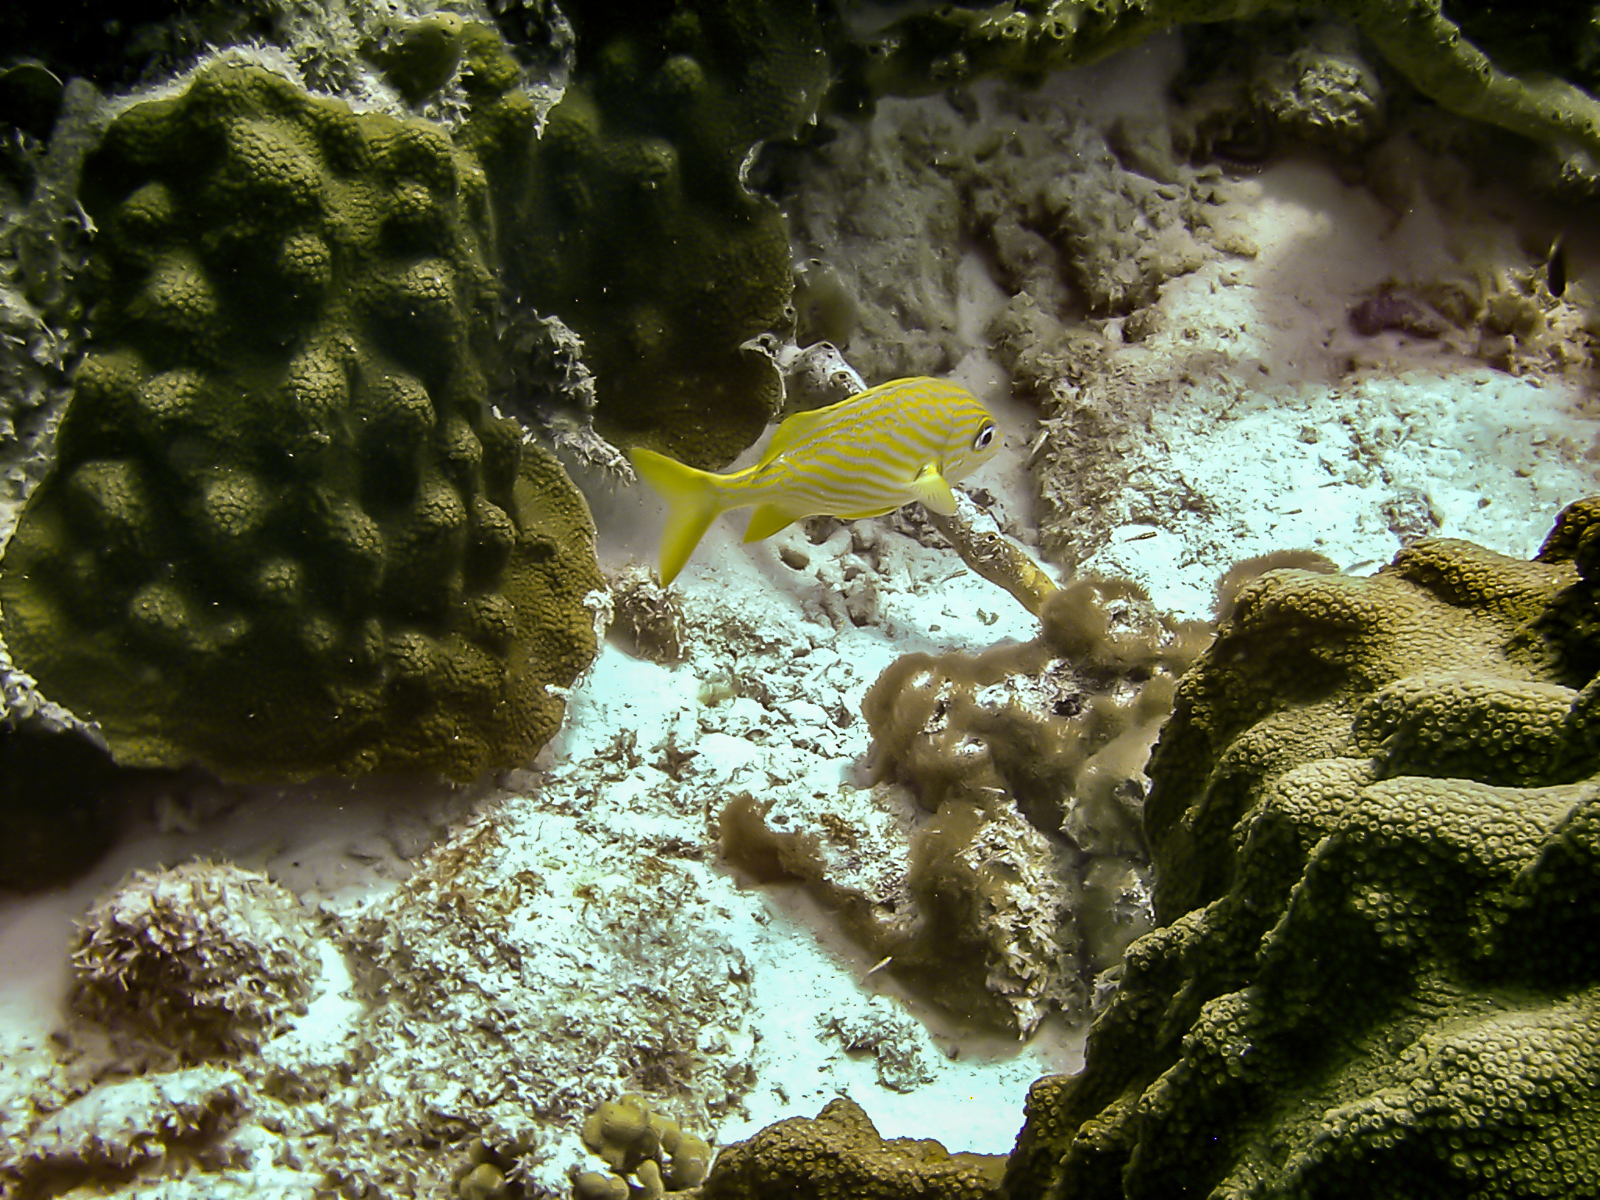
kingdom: Animalia
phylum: Chordata
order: Perciformes
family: Haemulidae
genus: Haemulon
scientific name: Haemulon flavolineatum
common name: French grunt
